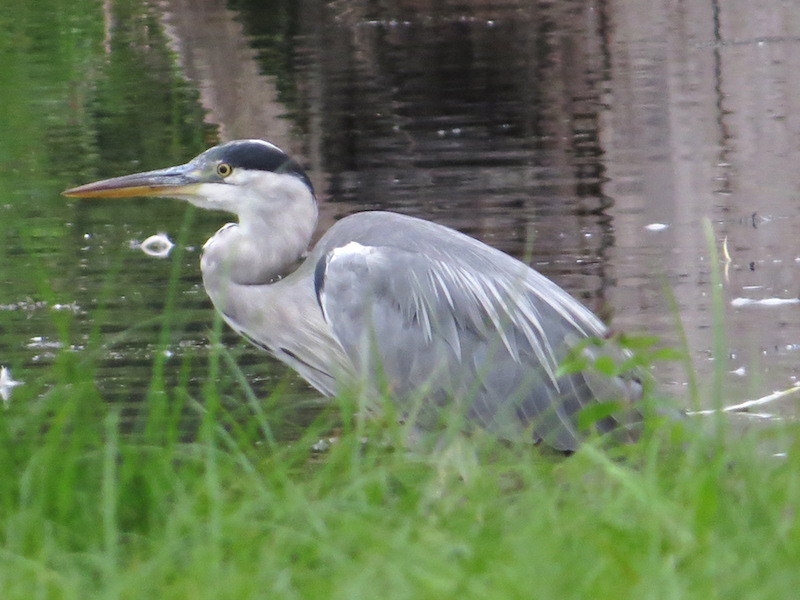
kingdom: Animalia
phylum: Chordata
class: Aves
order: Pelecaniformes
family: Ardeidae
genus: Ardea
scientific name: Ardea cinerea
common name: Grey heron
